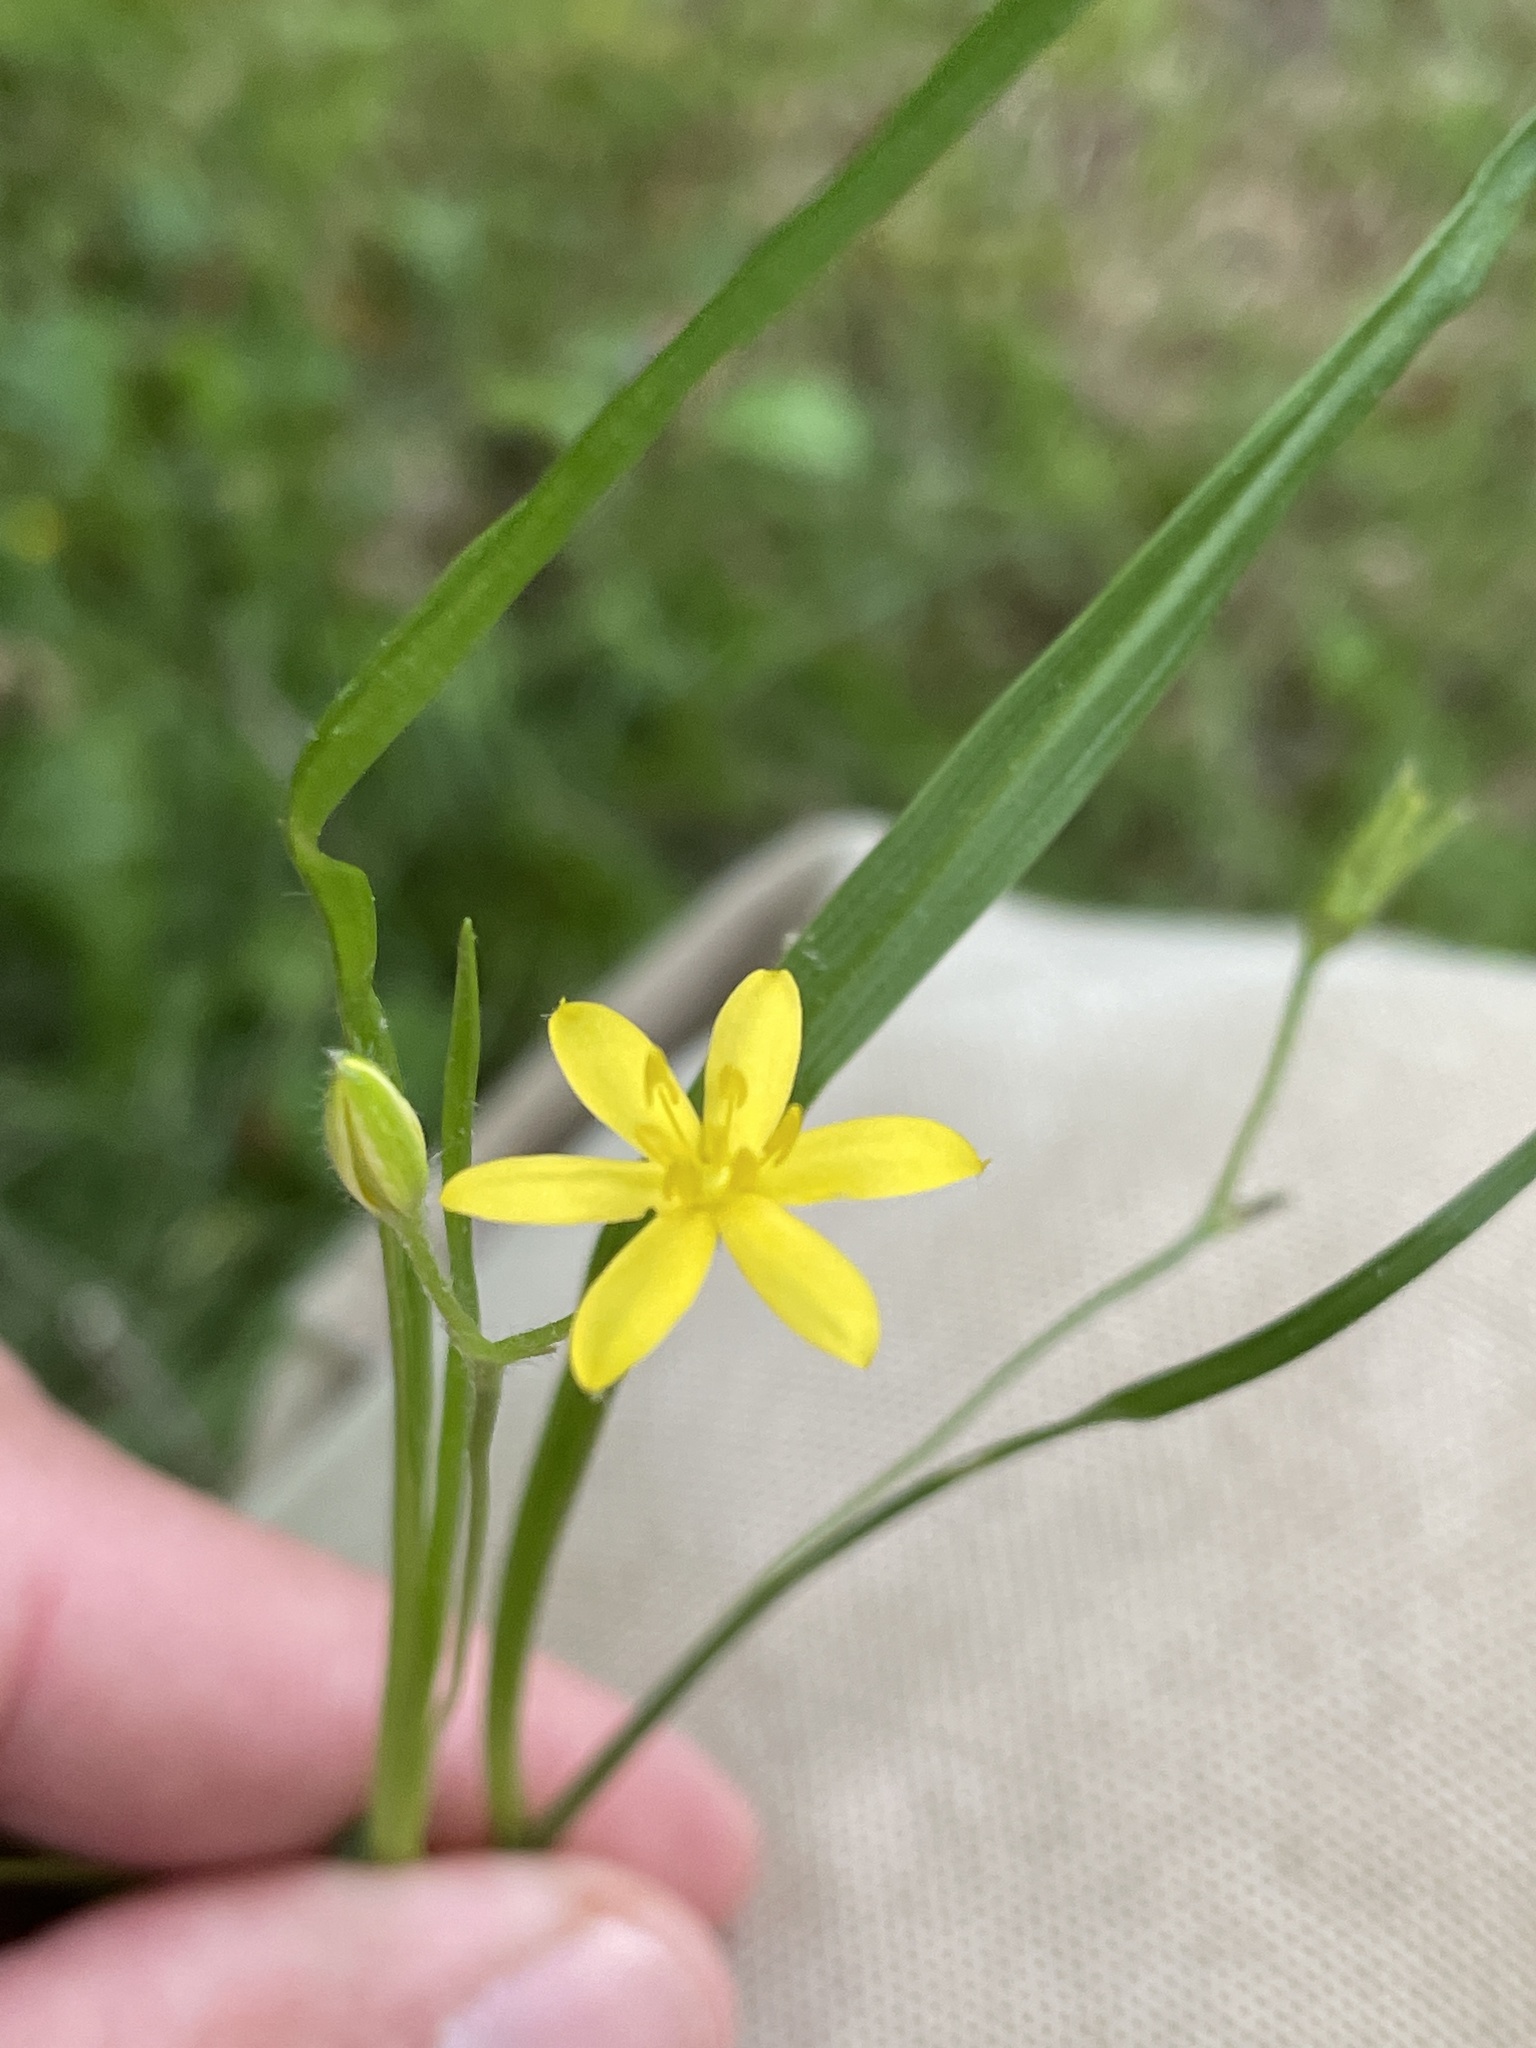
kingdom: Plantae
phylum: Tracheophyta
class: Liliopsida
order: Asparagales
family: Hypoxidaceae
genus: Hypoxis
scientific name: Hypoxis hirsuta
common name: Common goldstar
